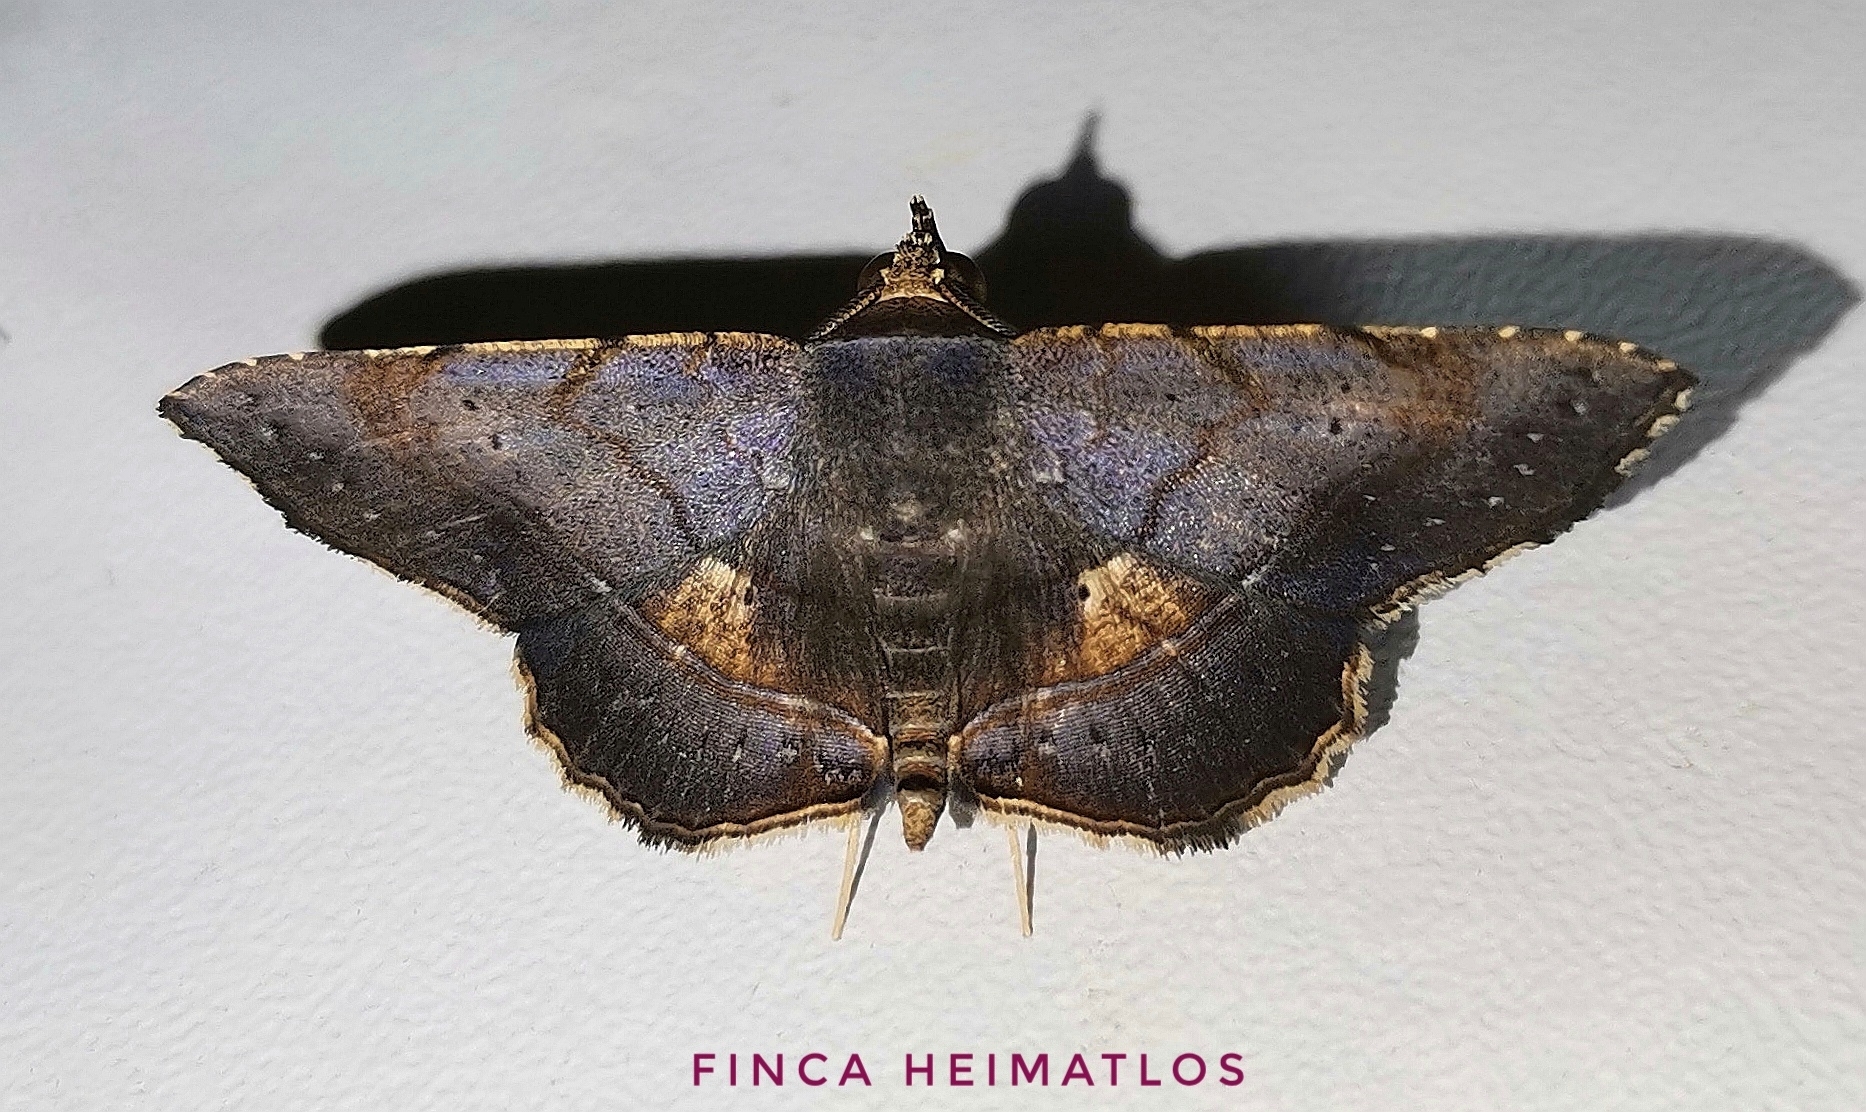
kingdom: Animalia
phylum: Arthropoda
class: Insecta
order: Lepidoptera
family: Erebidae
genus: Clapra
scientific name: Clapra uzza
